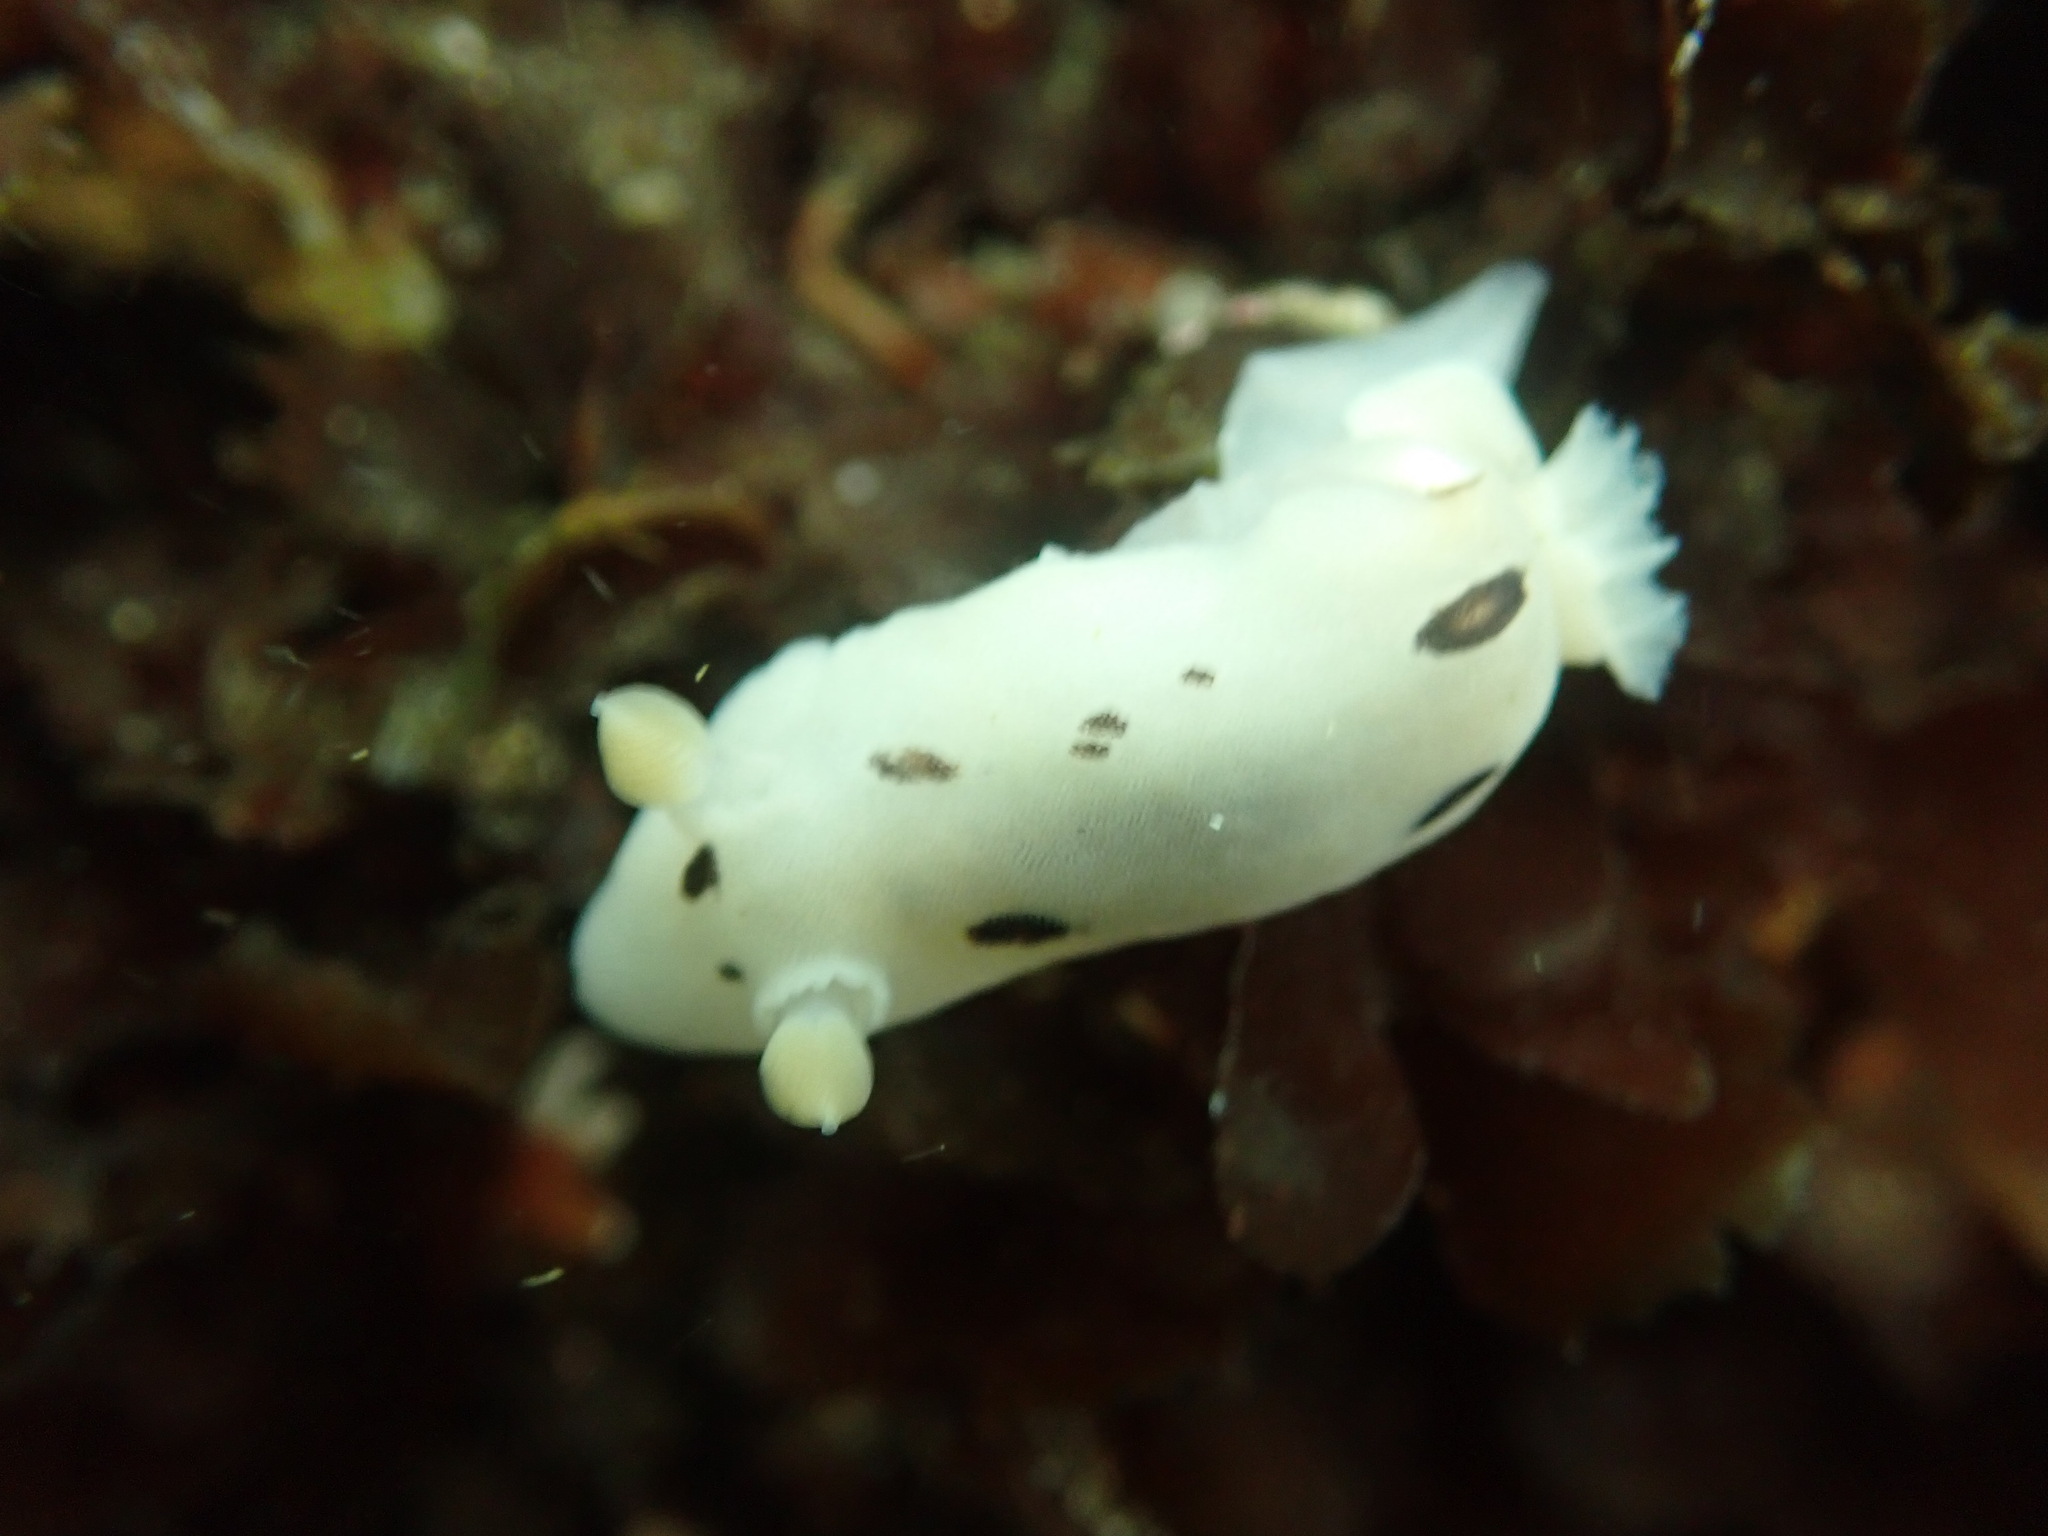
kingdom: Animalia
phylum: Mollusca
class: Gastropoda
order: Nudibranchia
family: Discodorididae
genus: Diaulula
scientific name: Diaulula sandiegensis
